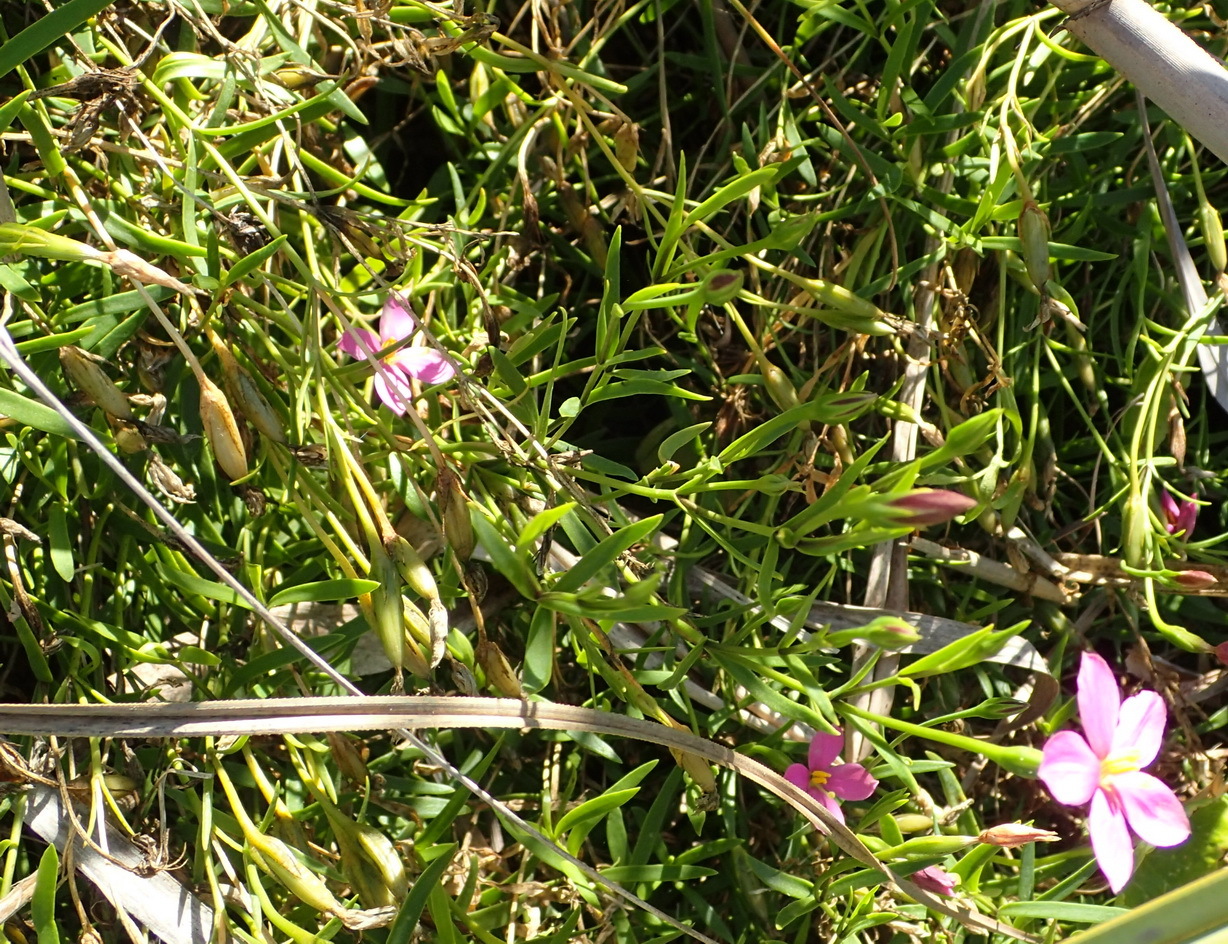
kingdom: Plantae
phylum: Tracheophyta
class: Magnoliopsida
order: Gentianales
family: Gentianaceae
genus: Chironia
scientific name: Chironia melampyrifolia
